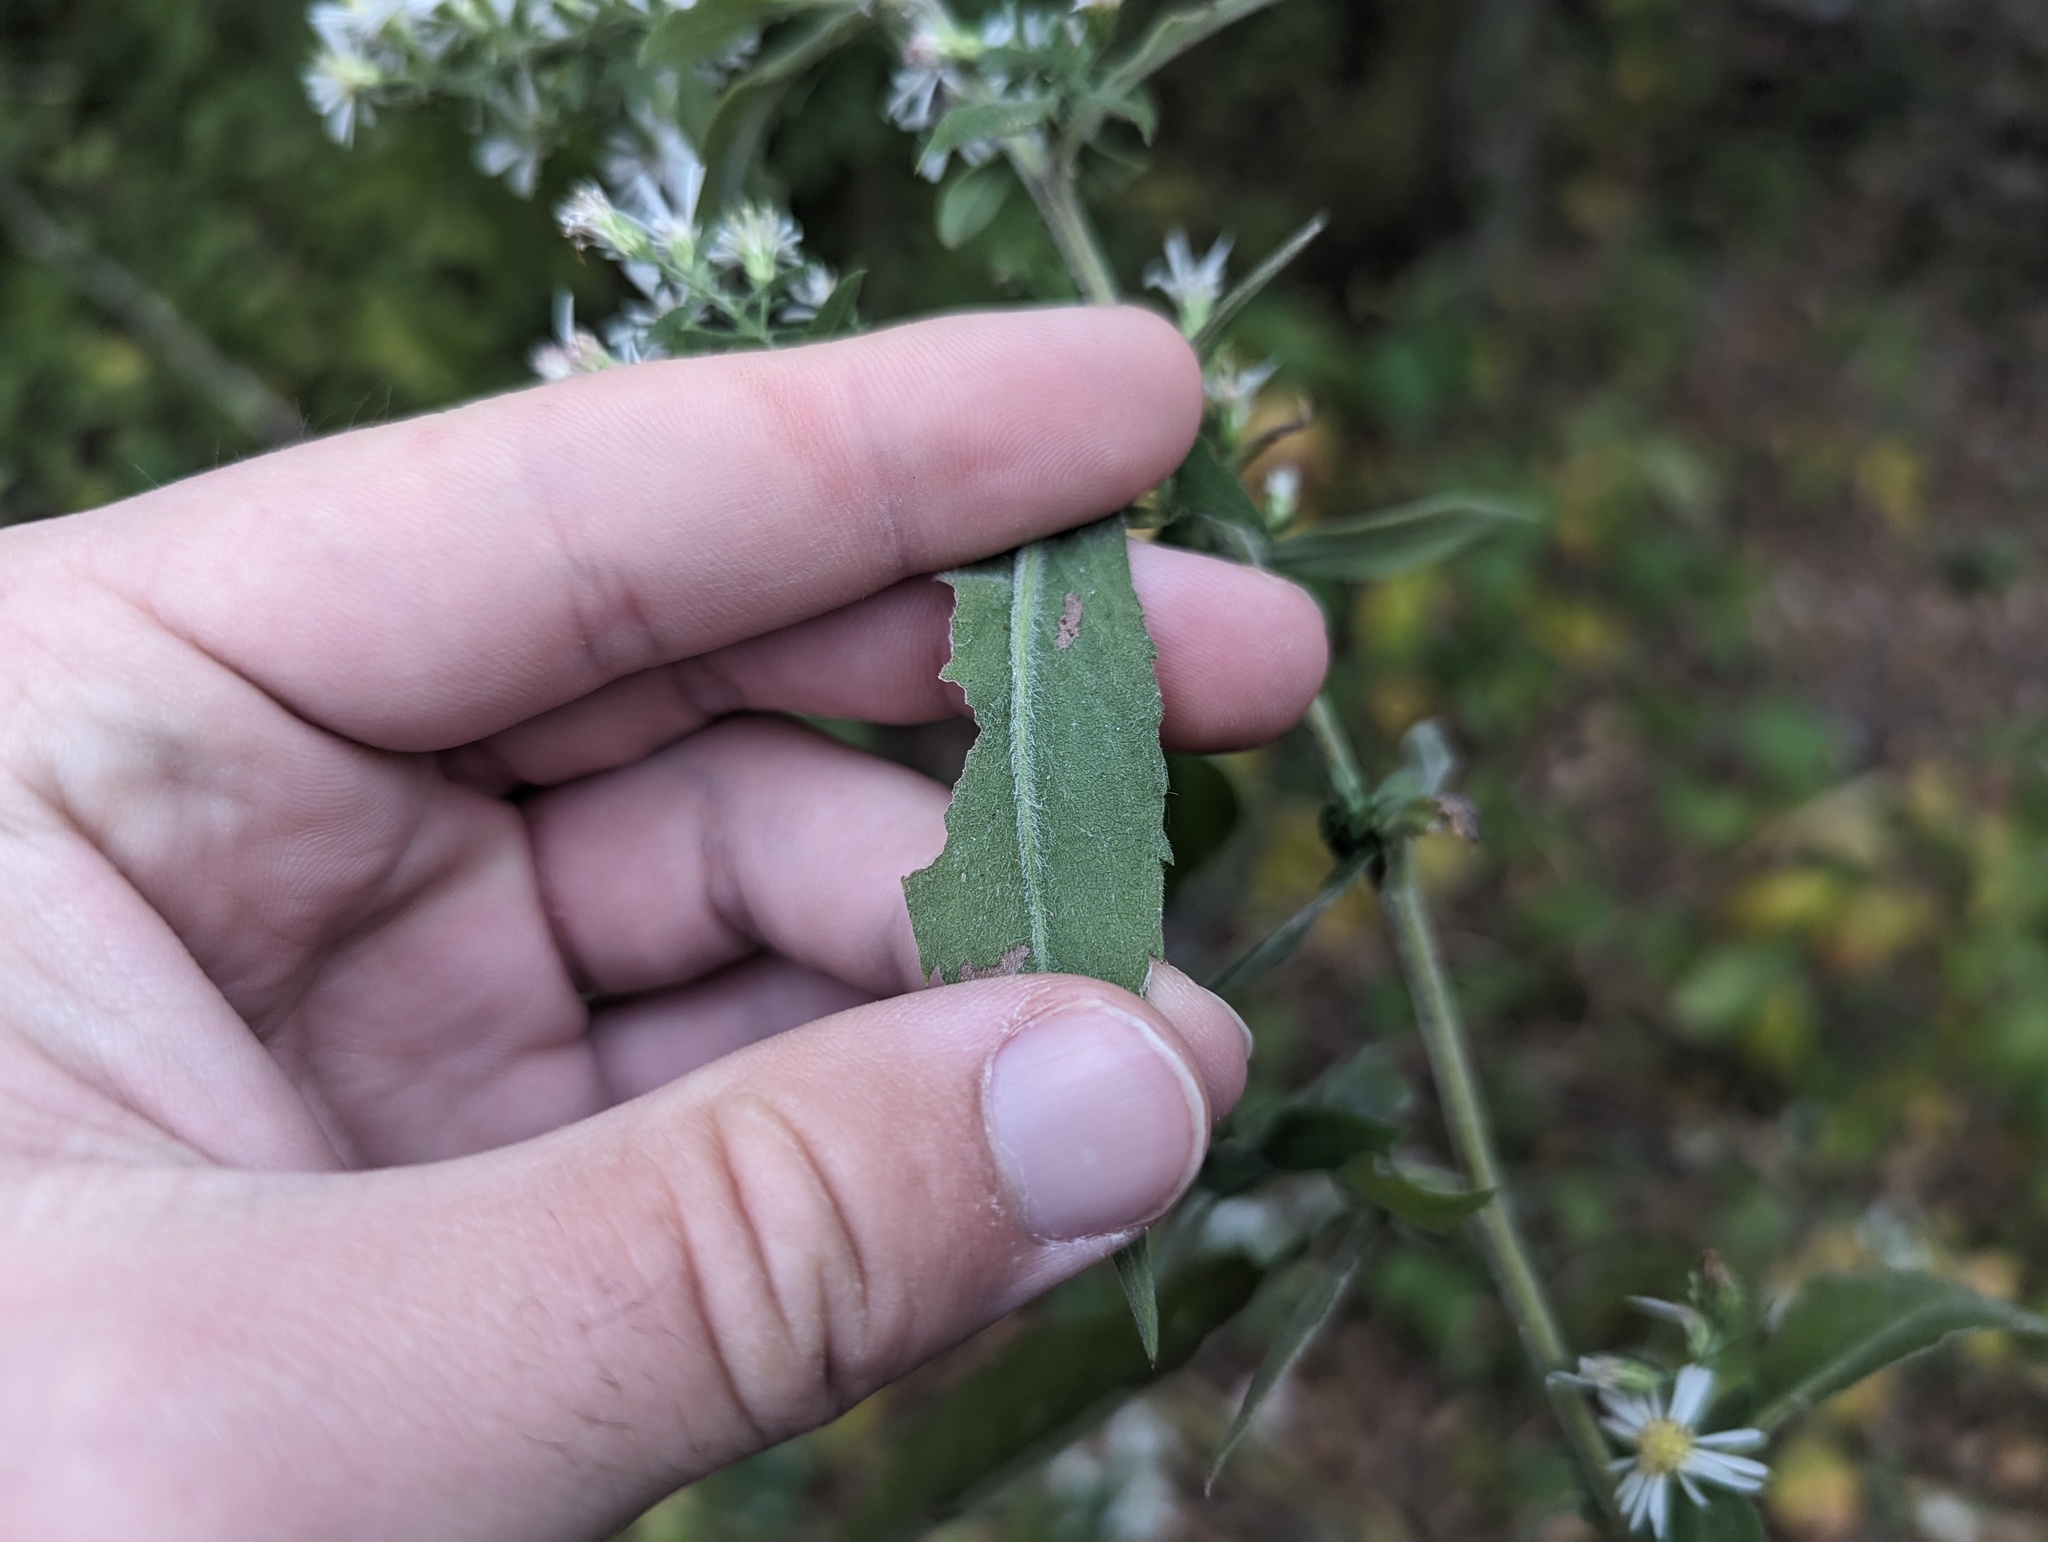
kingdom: Plantae
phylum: Tracheophyta
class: Magnoliopsida
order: Asterales
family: Asteraceae
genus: Symphyotrichum
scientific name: Symphyotrichum ontarionis
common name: Bottomland aster
